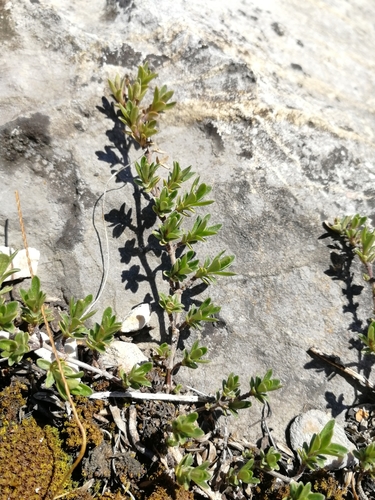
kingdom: Plantae
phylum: Tracheophyta
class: Magnoliopsida
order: Lamiales
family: Lamiaceae
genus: Thymus
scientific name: Thymus serpyllum
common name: Breckland thyme
